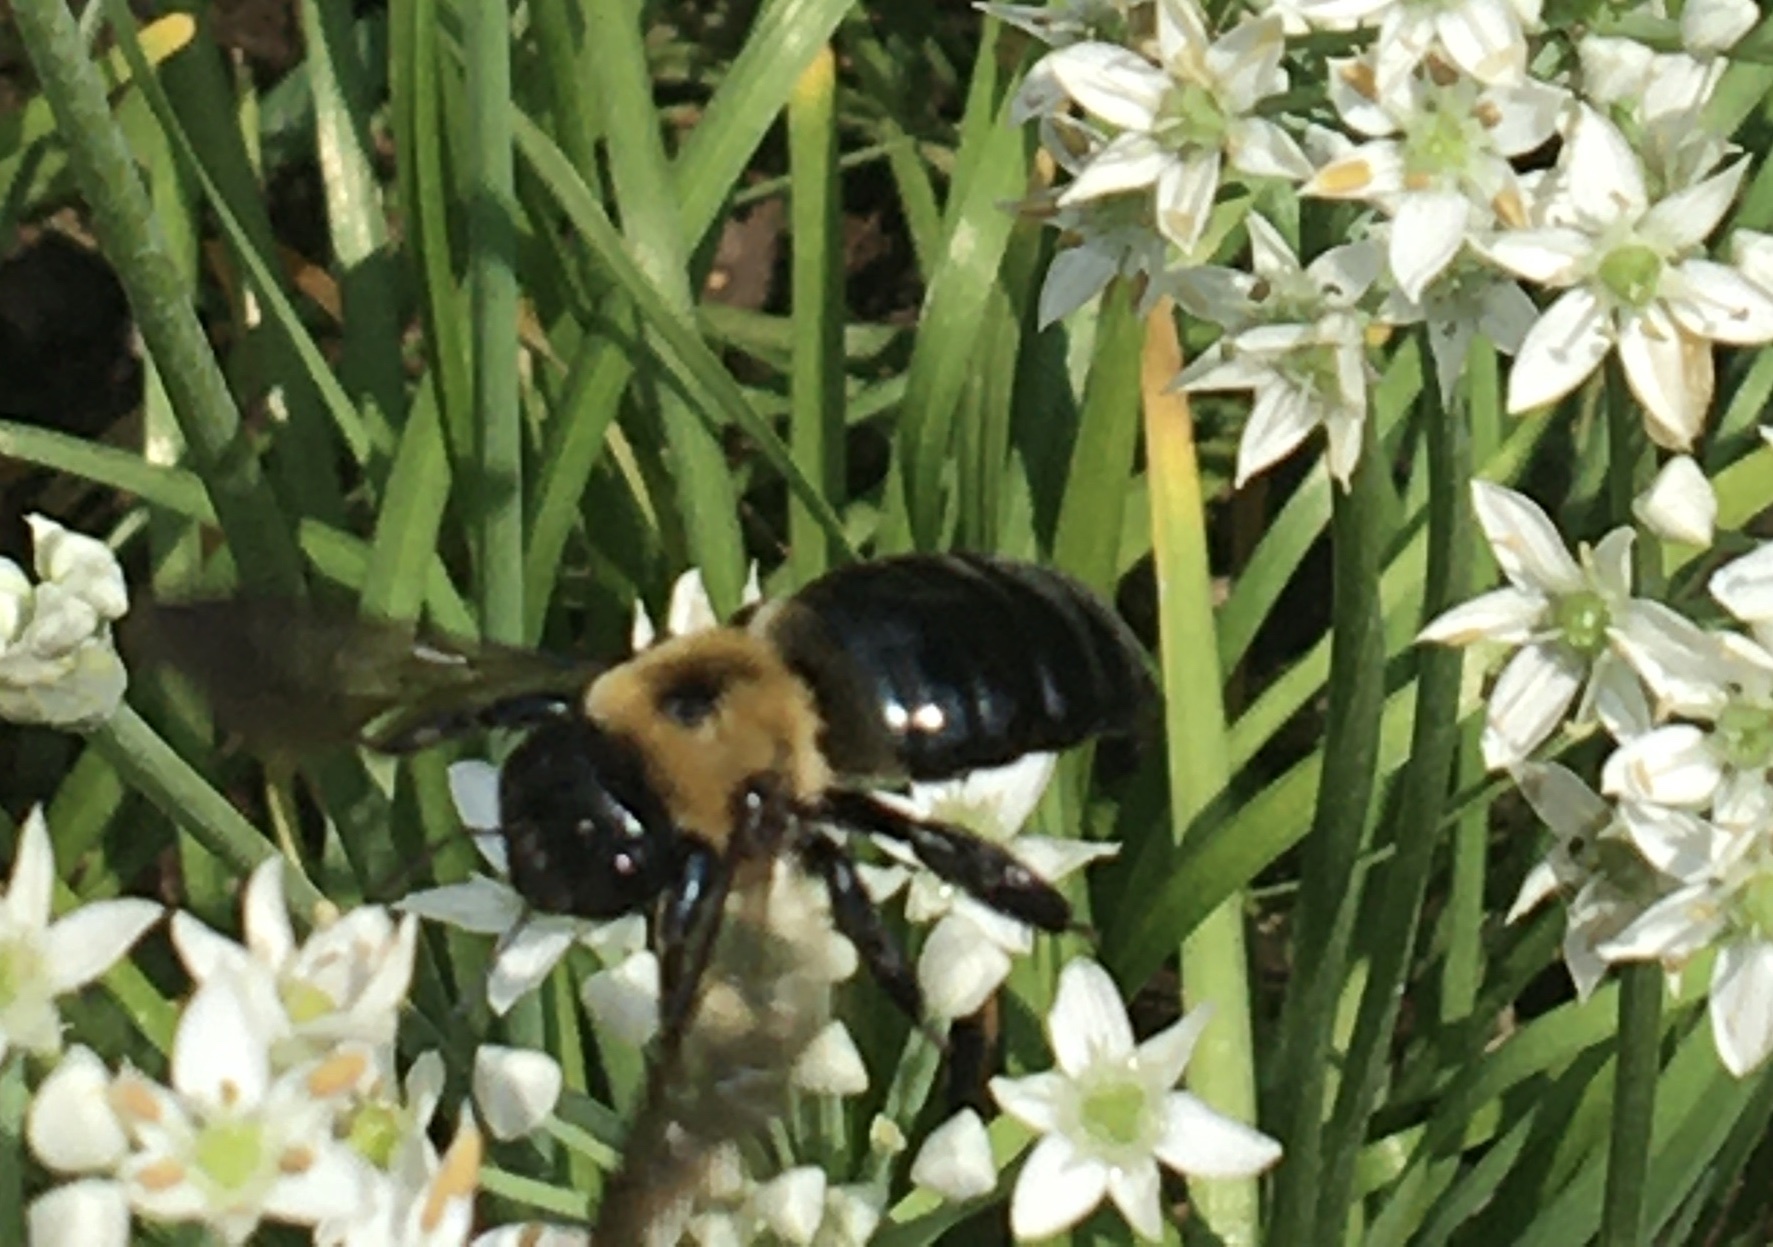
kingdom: Animalia
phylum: Arthropoda
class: Insecta
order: Hymenoptera
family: Apidae
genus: Xylocopa
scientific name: Xylocopa virginica
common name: Carpenter bee
